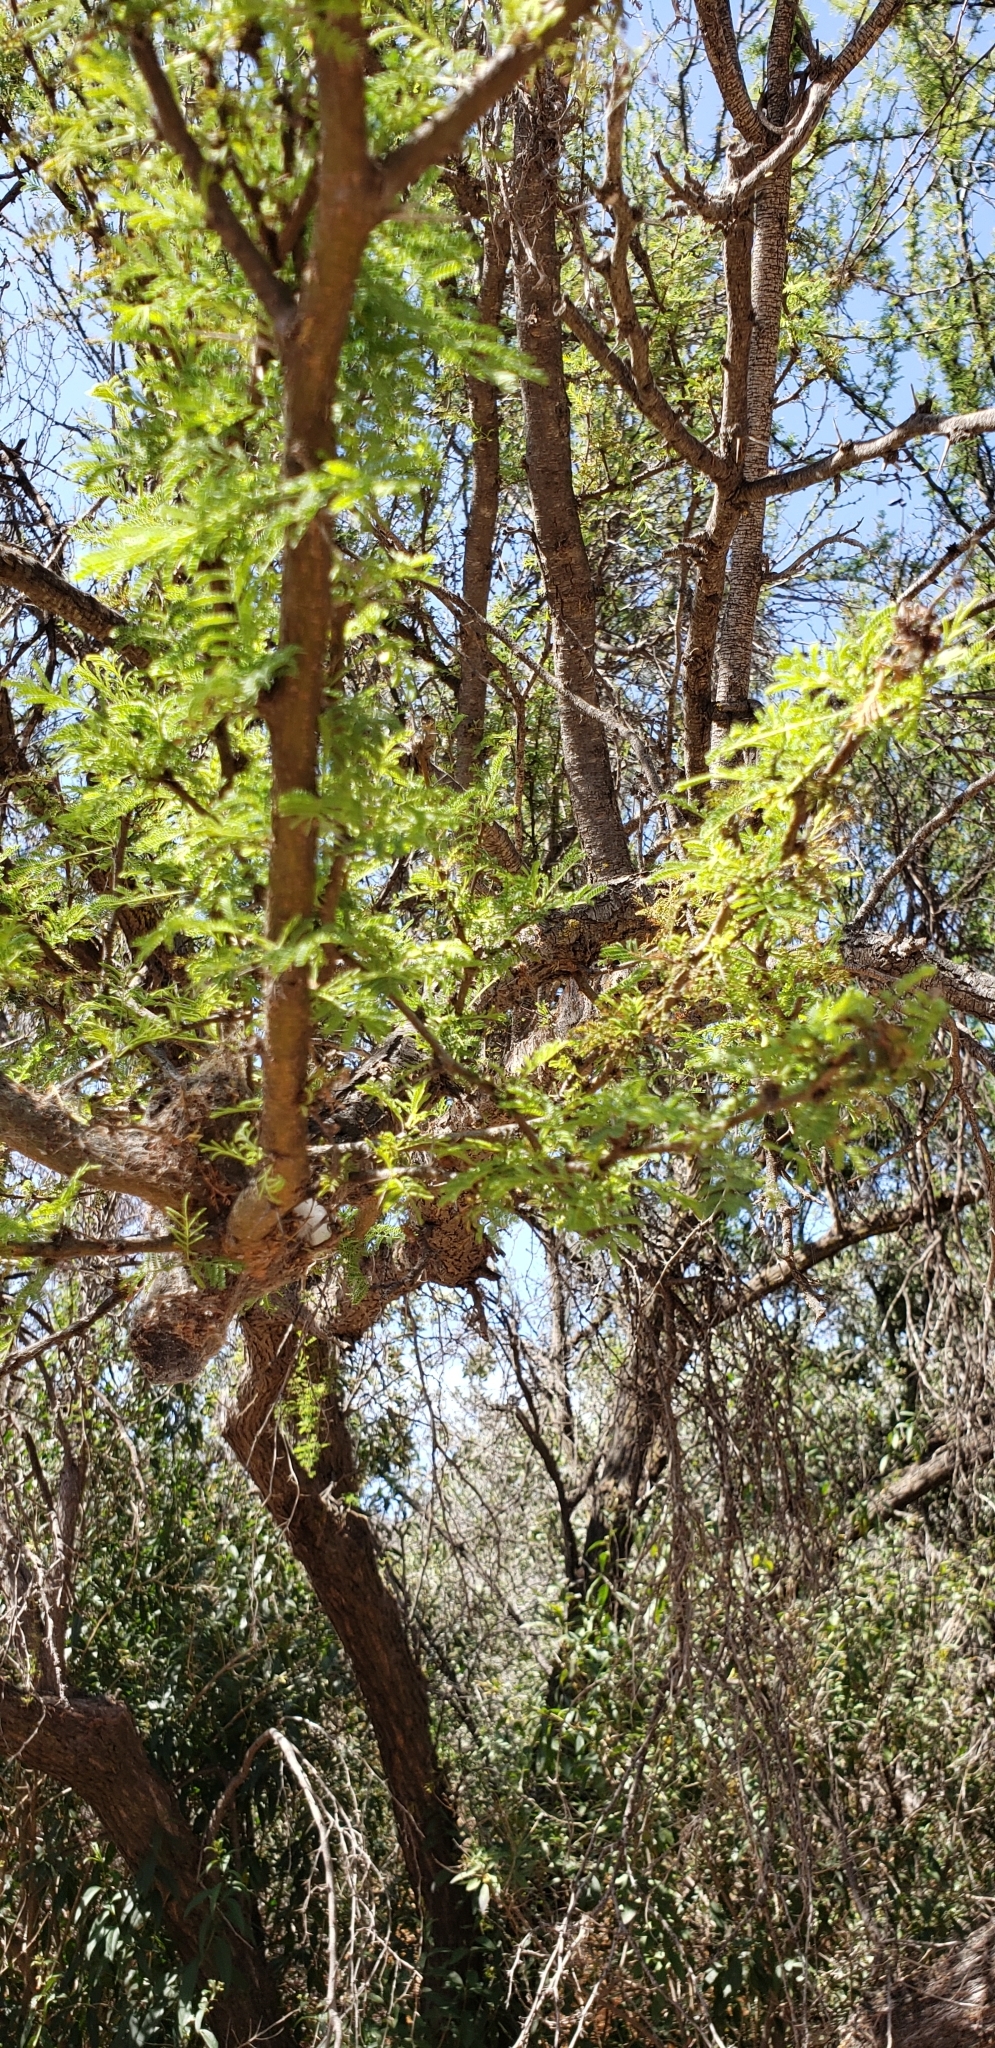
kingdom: Plantae
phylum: Tracheophyta
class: Magnoliopsida
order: Fabales
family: Fabaceae
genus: Vachellia
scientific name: Vachellia caven
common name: Roman cassie
